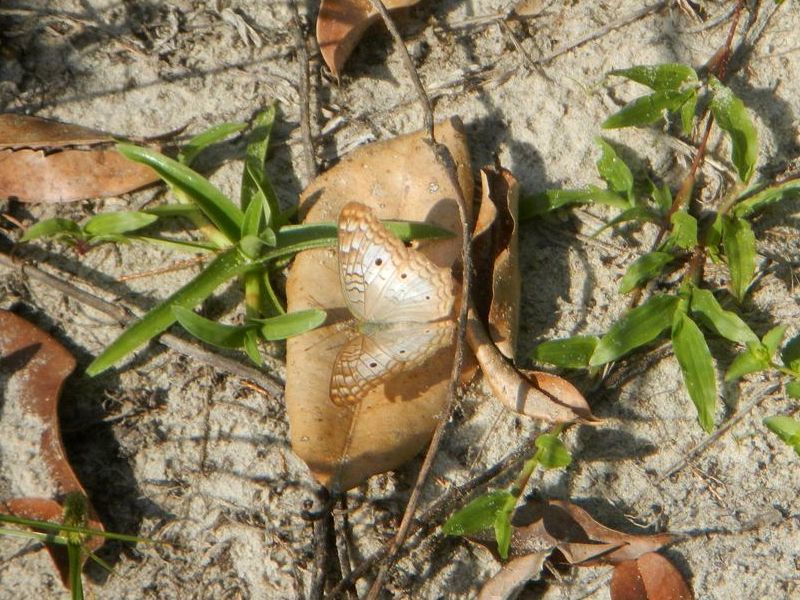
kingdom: Animalia
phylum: Arthropoda
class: Insecta
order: Lepidoptera
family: Nymphalidae
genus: Anartia
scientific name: Anartia jatrophae
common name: White peacock
